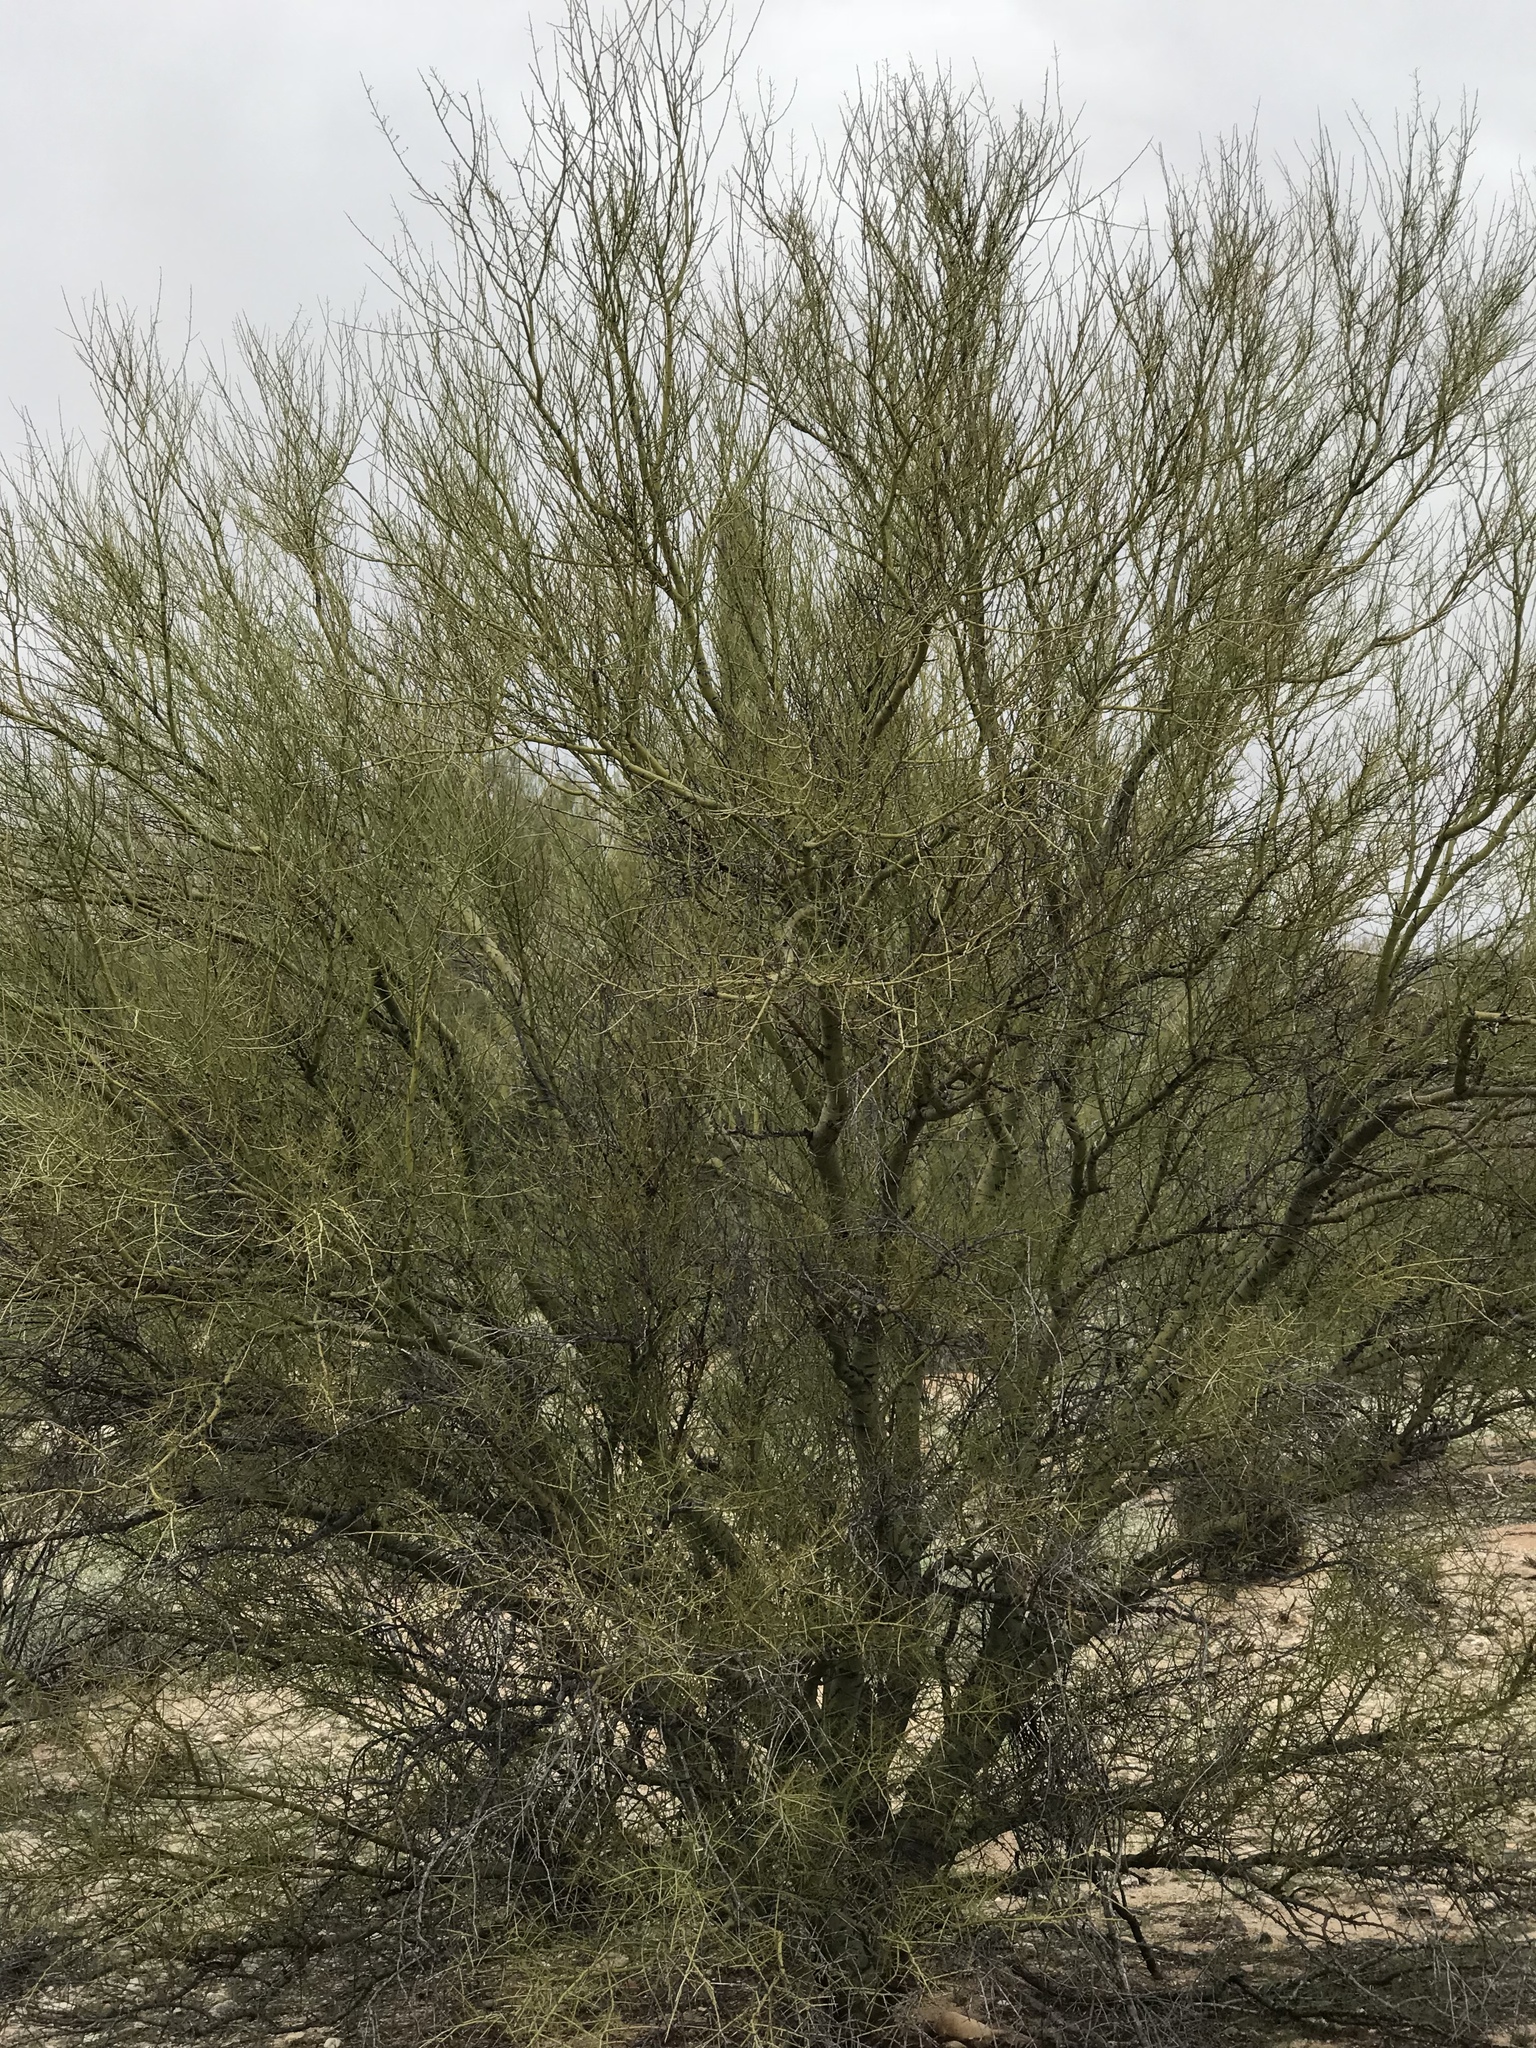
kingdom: Plantae
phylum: Tracheophyta
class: Magnoliopsida
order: Fabales
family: Fabaceae
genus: Parkinsonia
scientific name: Parkinsonia microphylla
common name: Yellow paloverde
